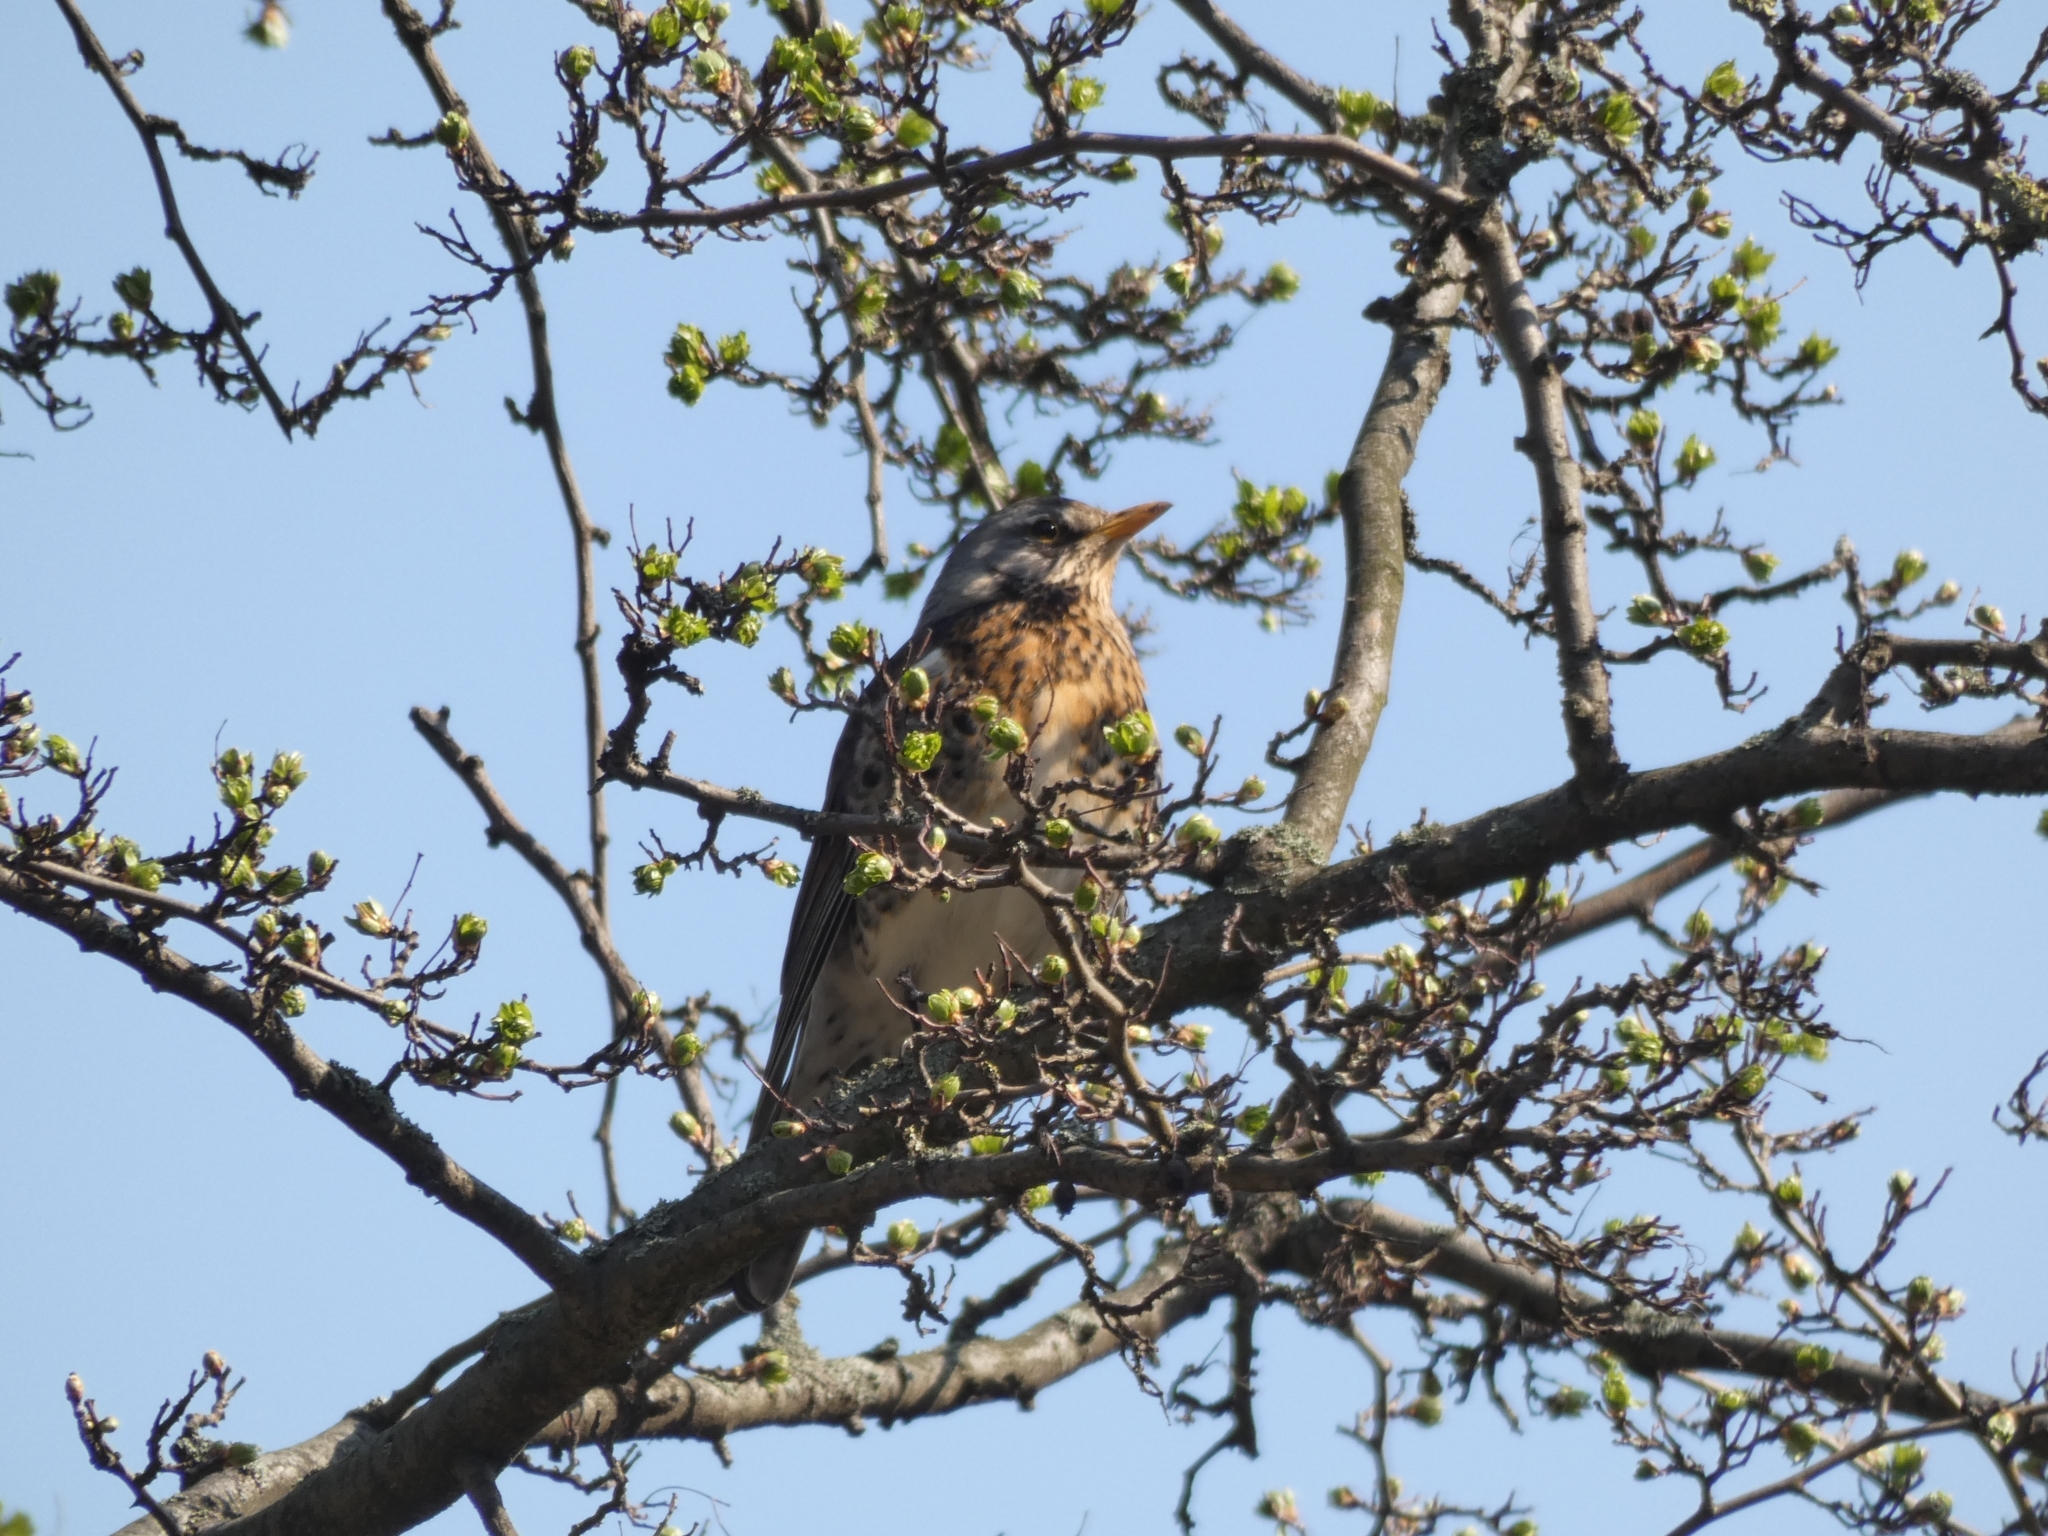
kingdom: Animalia
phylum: Chordata
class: Aves
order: Passeriformes
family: Turdidae
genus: Turdus
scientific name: Turdus pilaris
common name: Fieldfare
